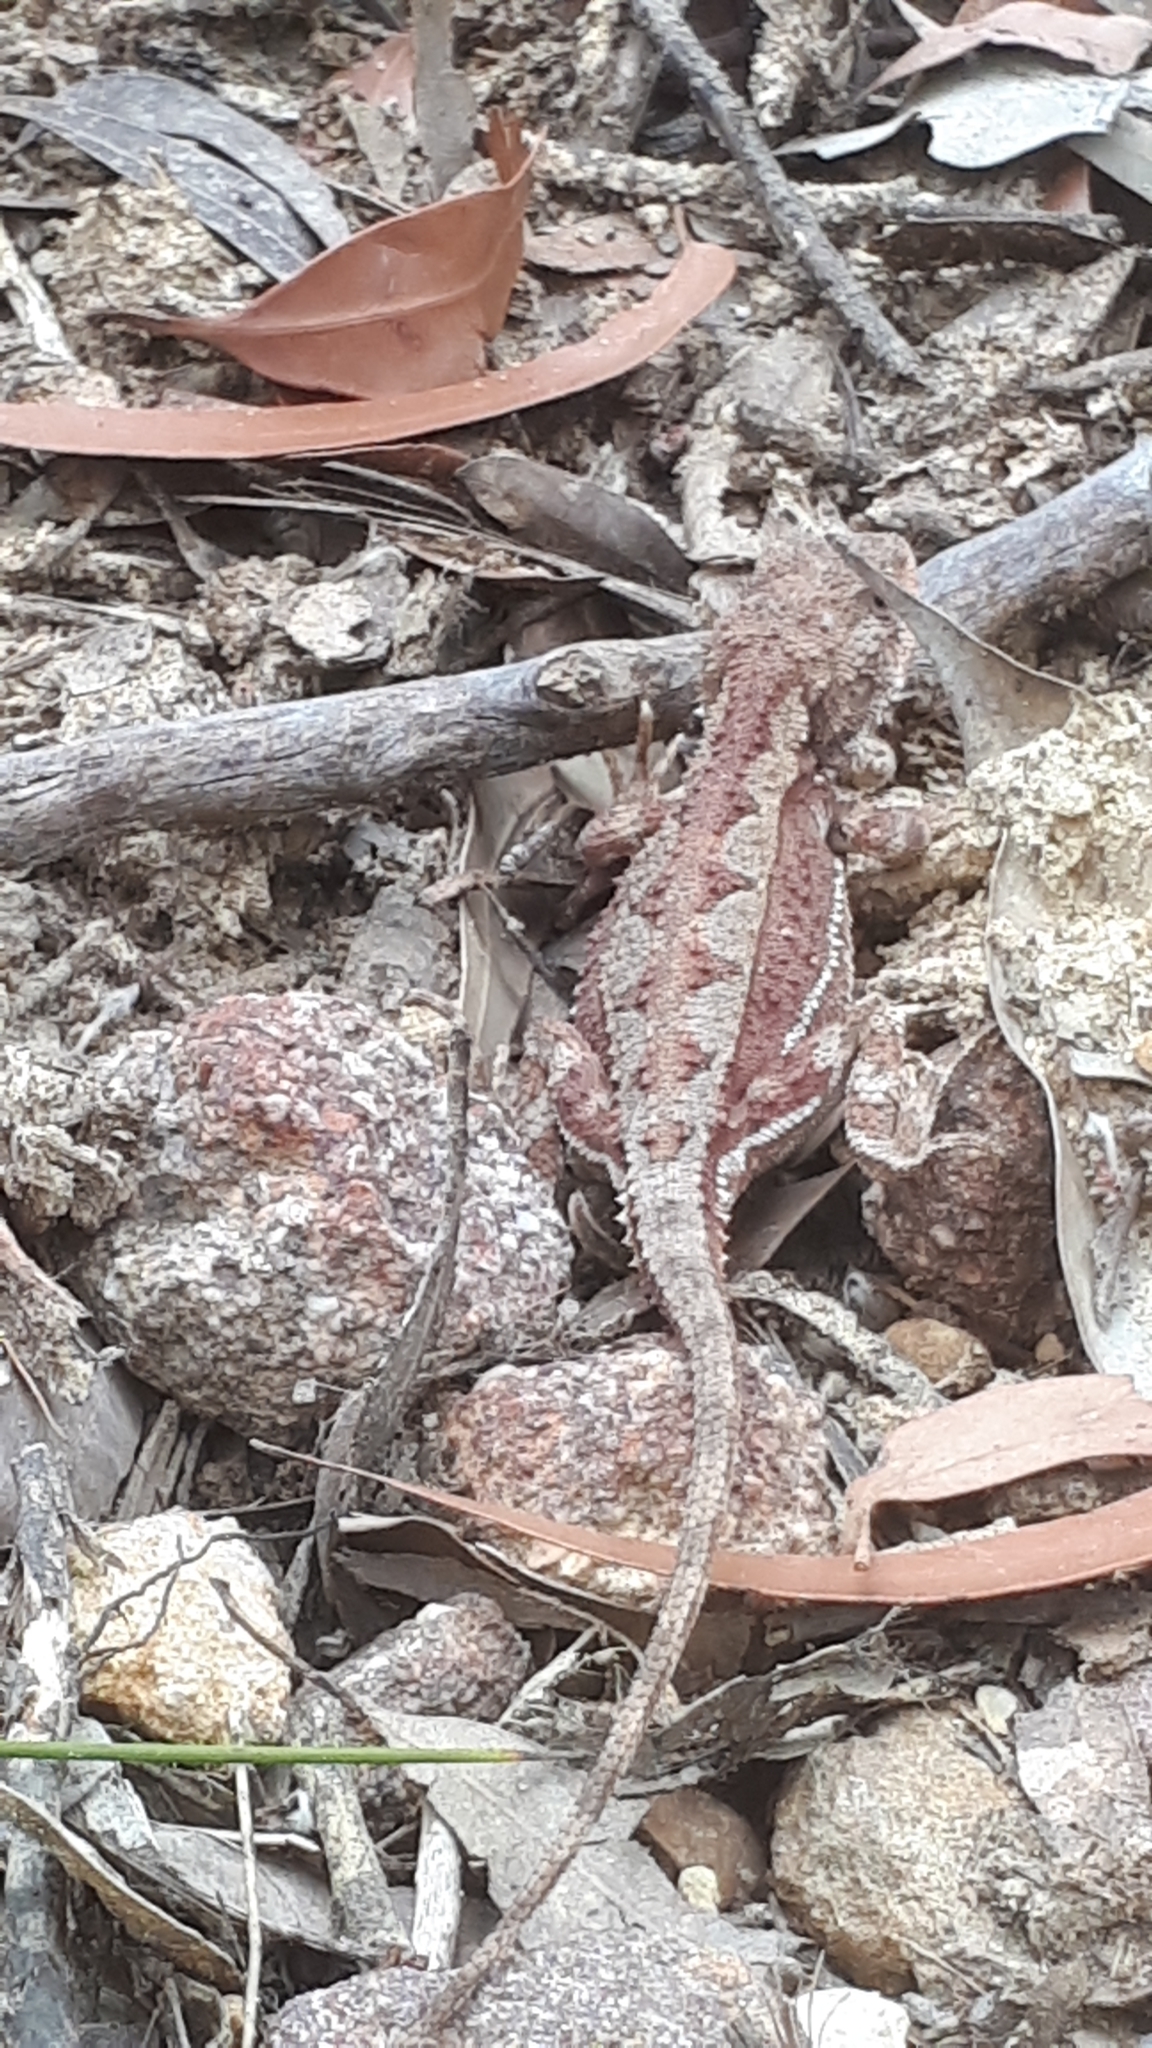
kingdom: Animalia
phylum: Chordata
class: Squamata
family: Agamidae
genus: Rankinia
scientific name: Rankinia diemensis
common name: Mountain dragon
